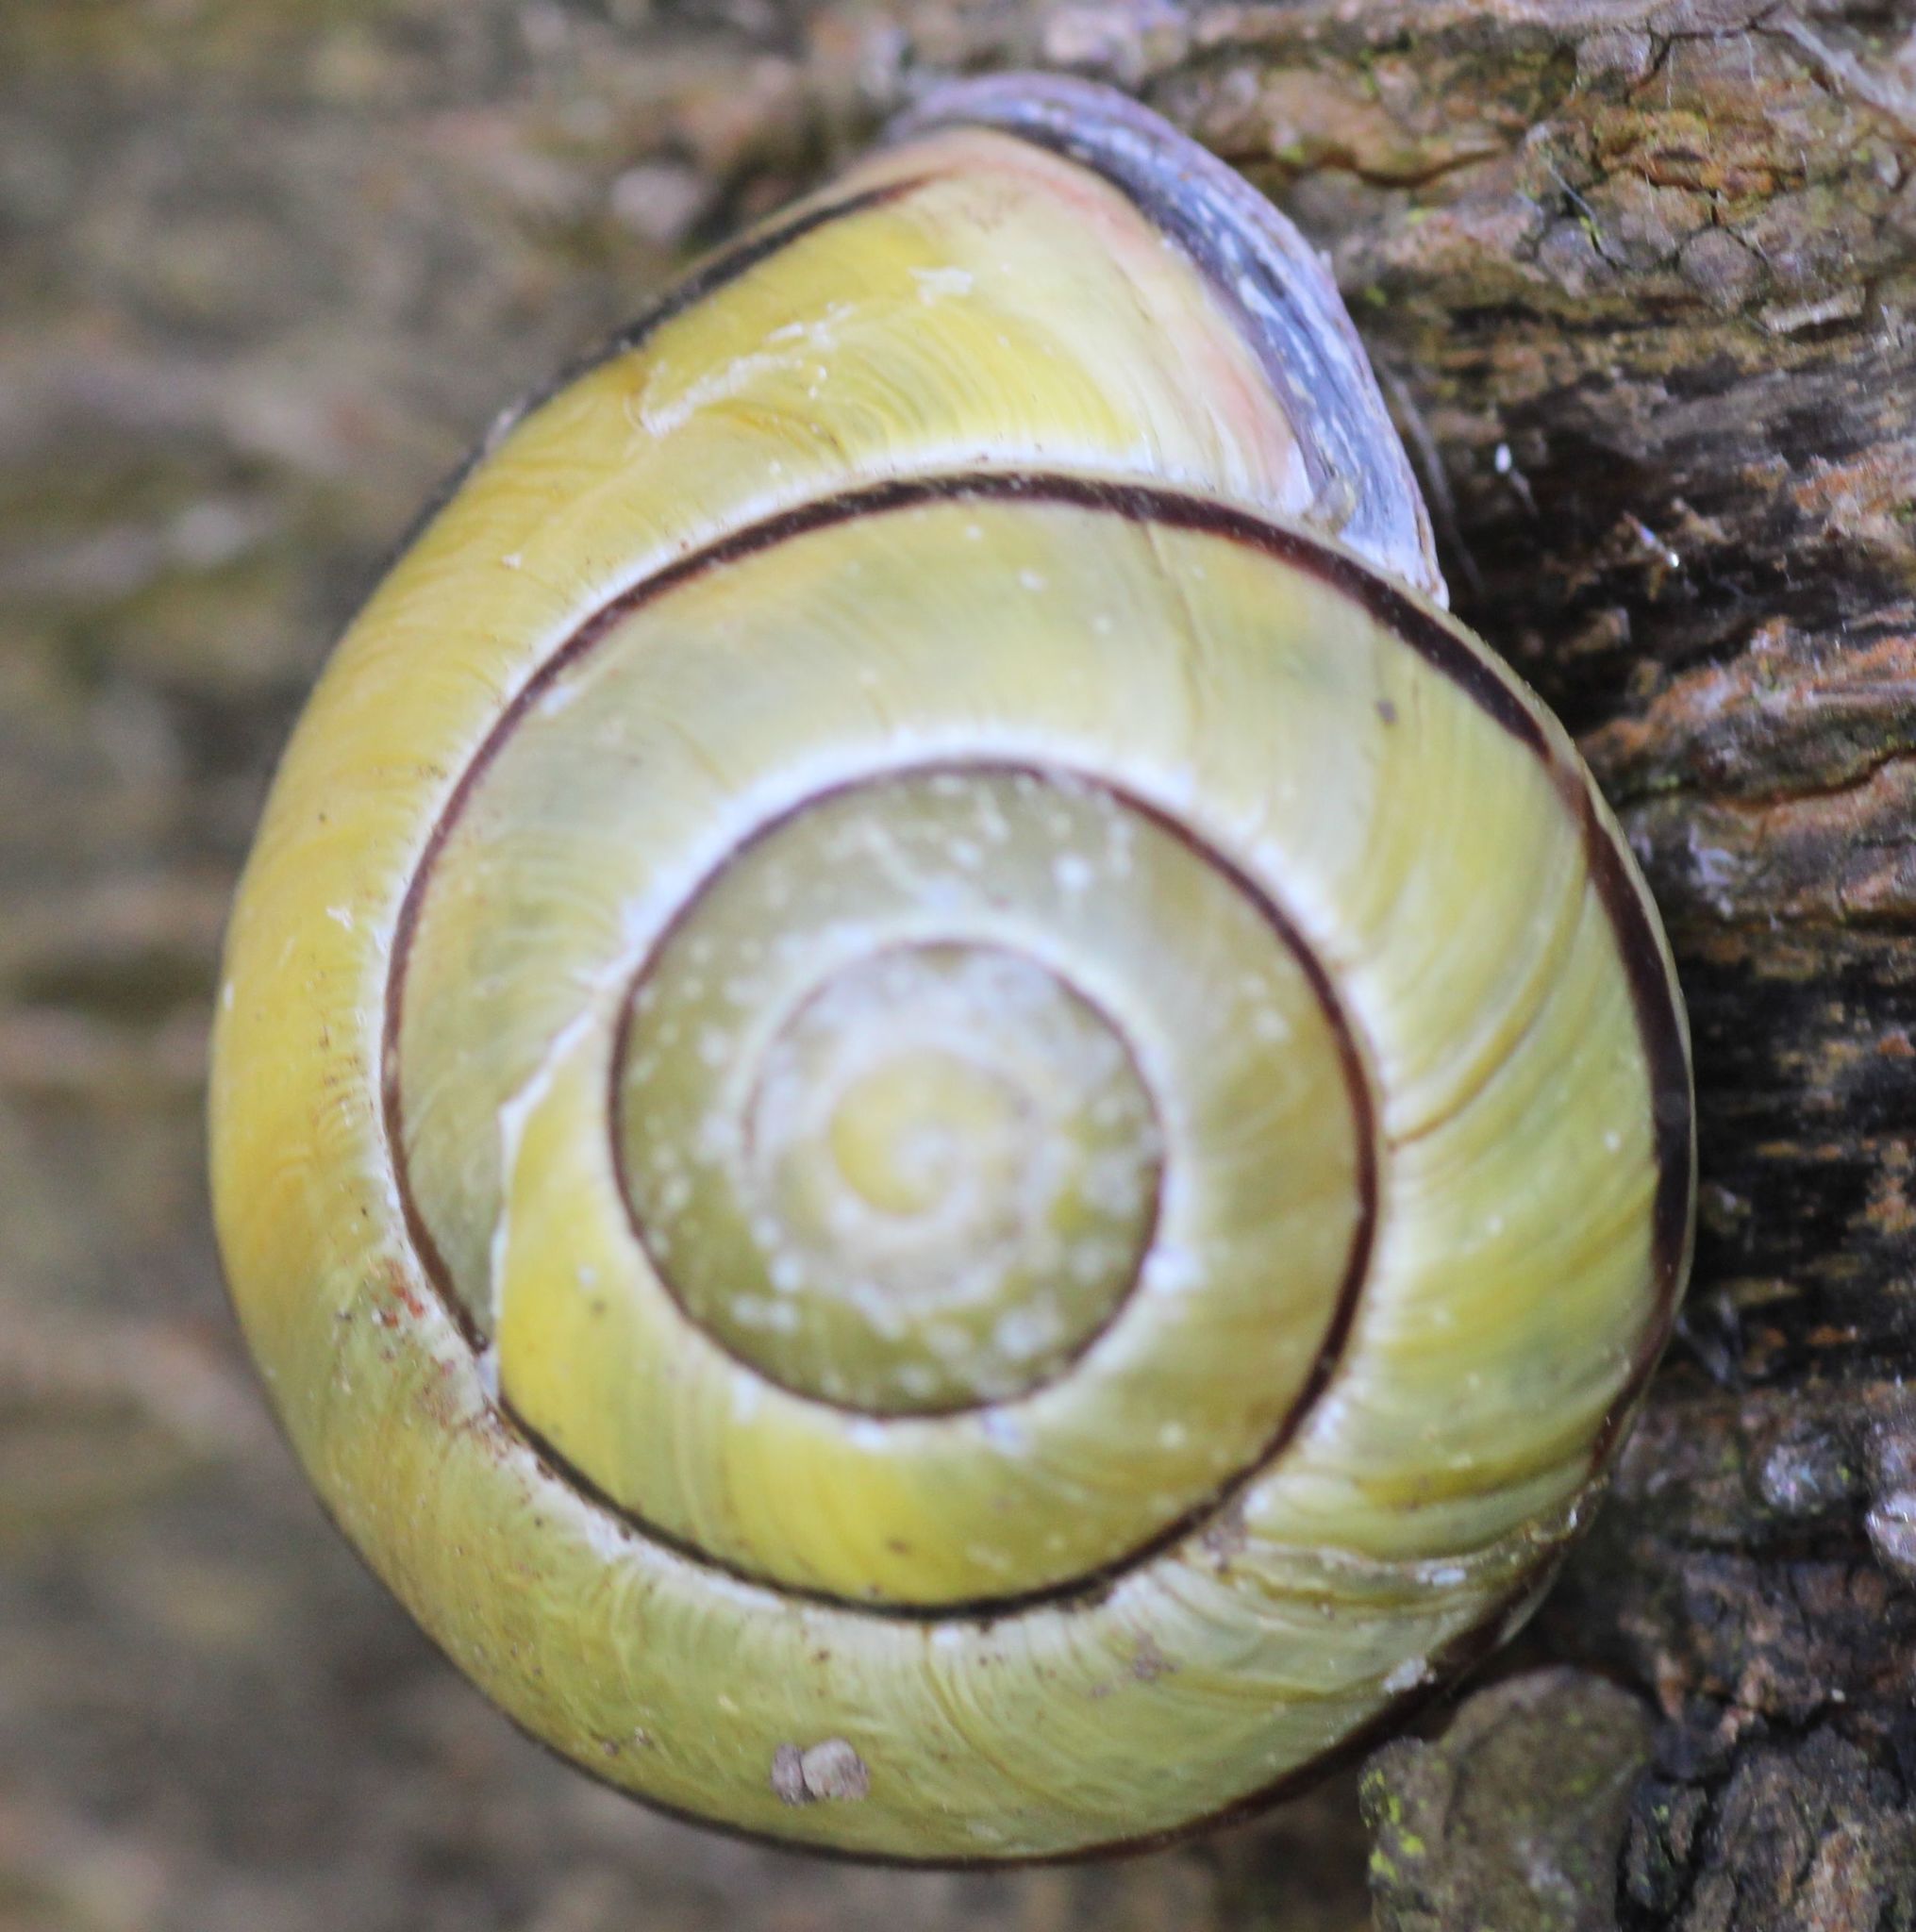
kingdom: Animalia
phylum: Mollusca
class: Gastropoda
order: Stylommatophora
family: Helicidae
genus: Cepaea
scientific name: Cepaea nemoralis
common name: Grovesnail
